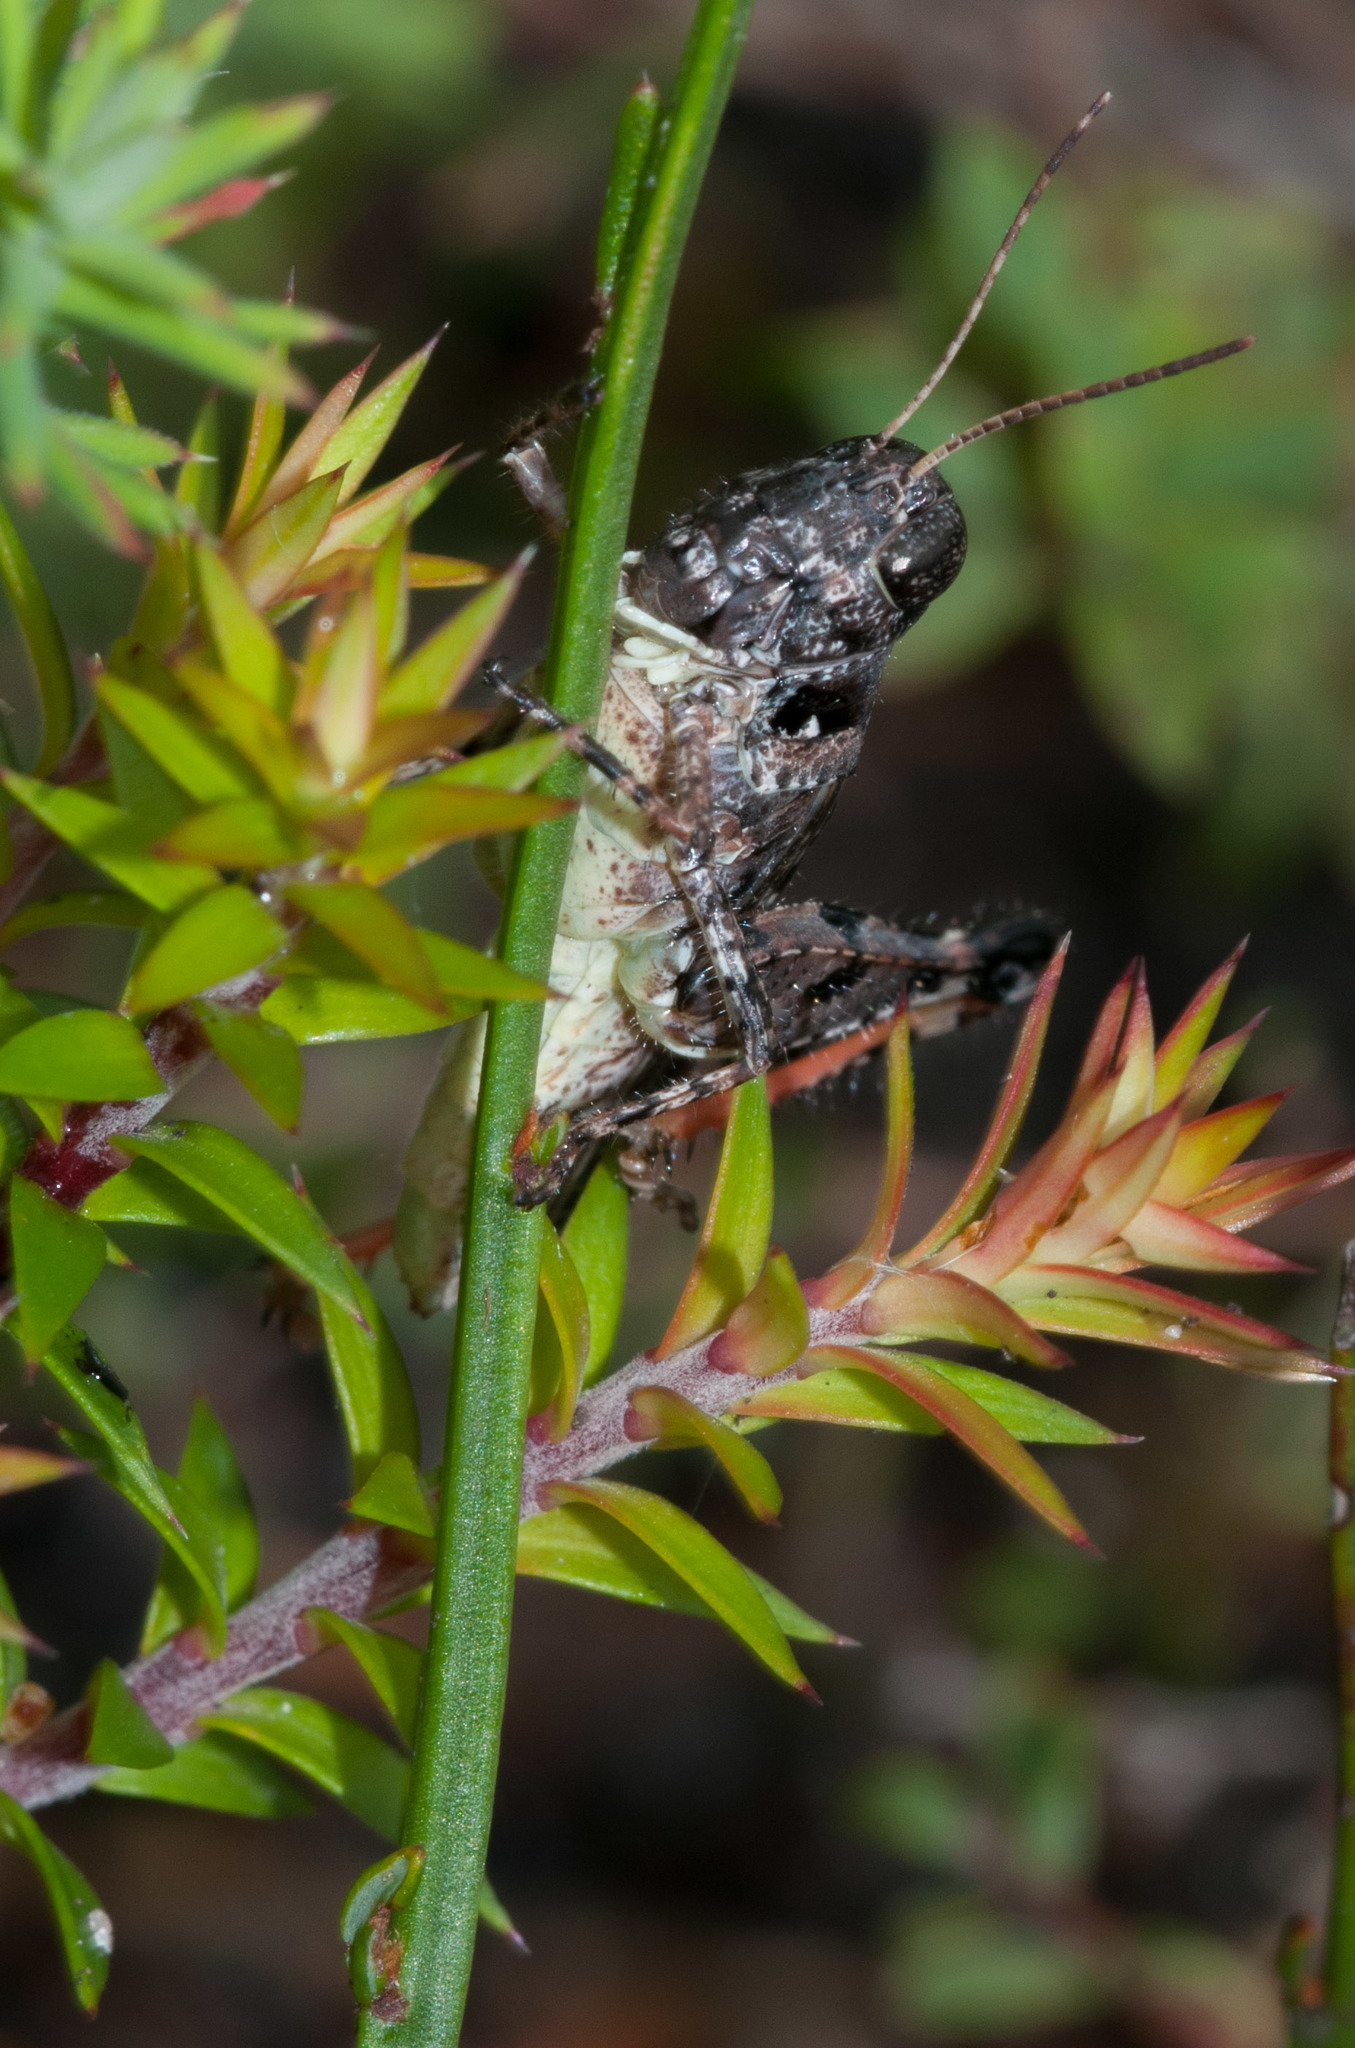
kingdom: Animalia
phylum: Arthropoda
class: Insecta
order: Orthoptera
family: Acrididae
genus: Austroicetes
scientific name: Austroicetes vulgaris
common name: Southeastern austroicetes
